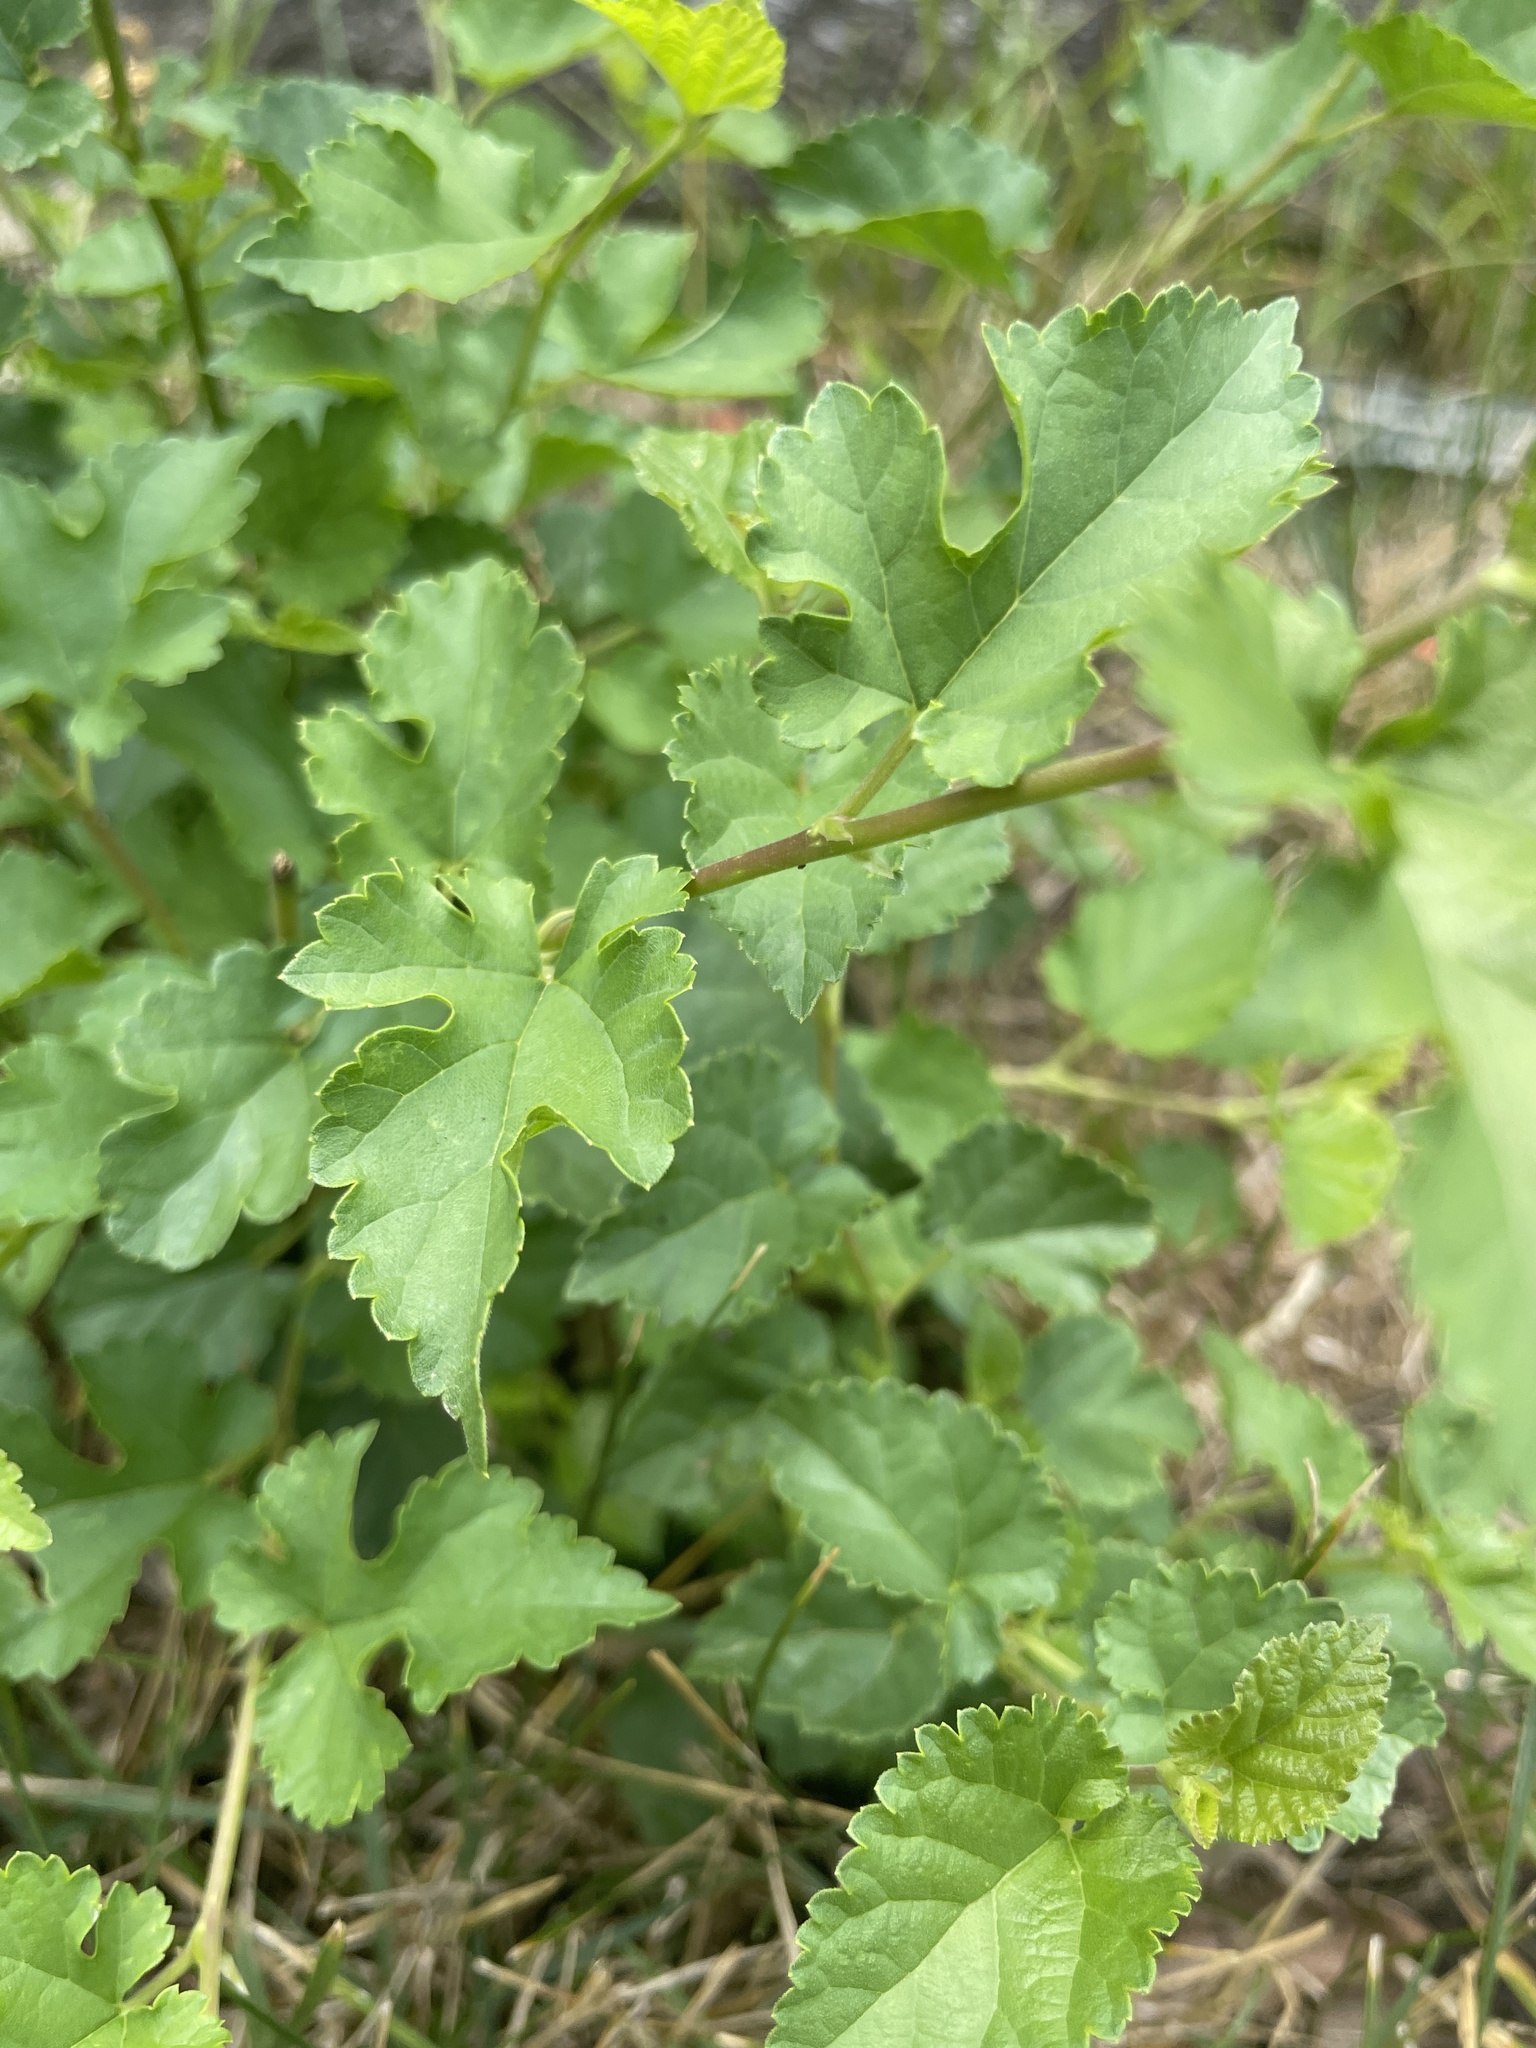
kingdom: Plantae
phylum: Tracheophyta
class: Magnoliopsida
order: Rosales
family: Moraceae
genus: Morus
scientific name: Morus alba
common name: White mulberry
